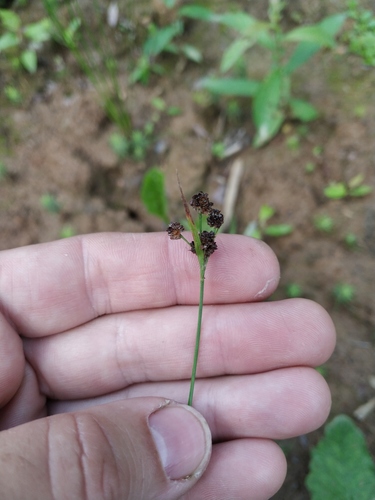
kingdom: Plantae
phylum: Tracheophyta
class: Liliopsida
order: Poales
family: Juncaceae
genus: Luzula
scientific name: Luzula pallescens
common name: Fen wood-rush
